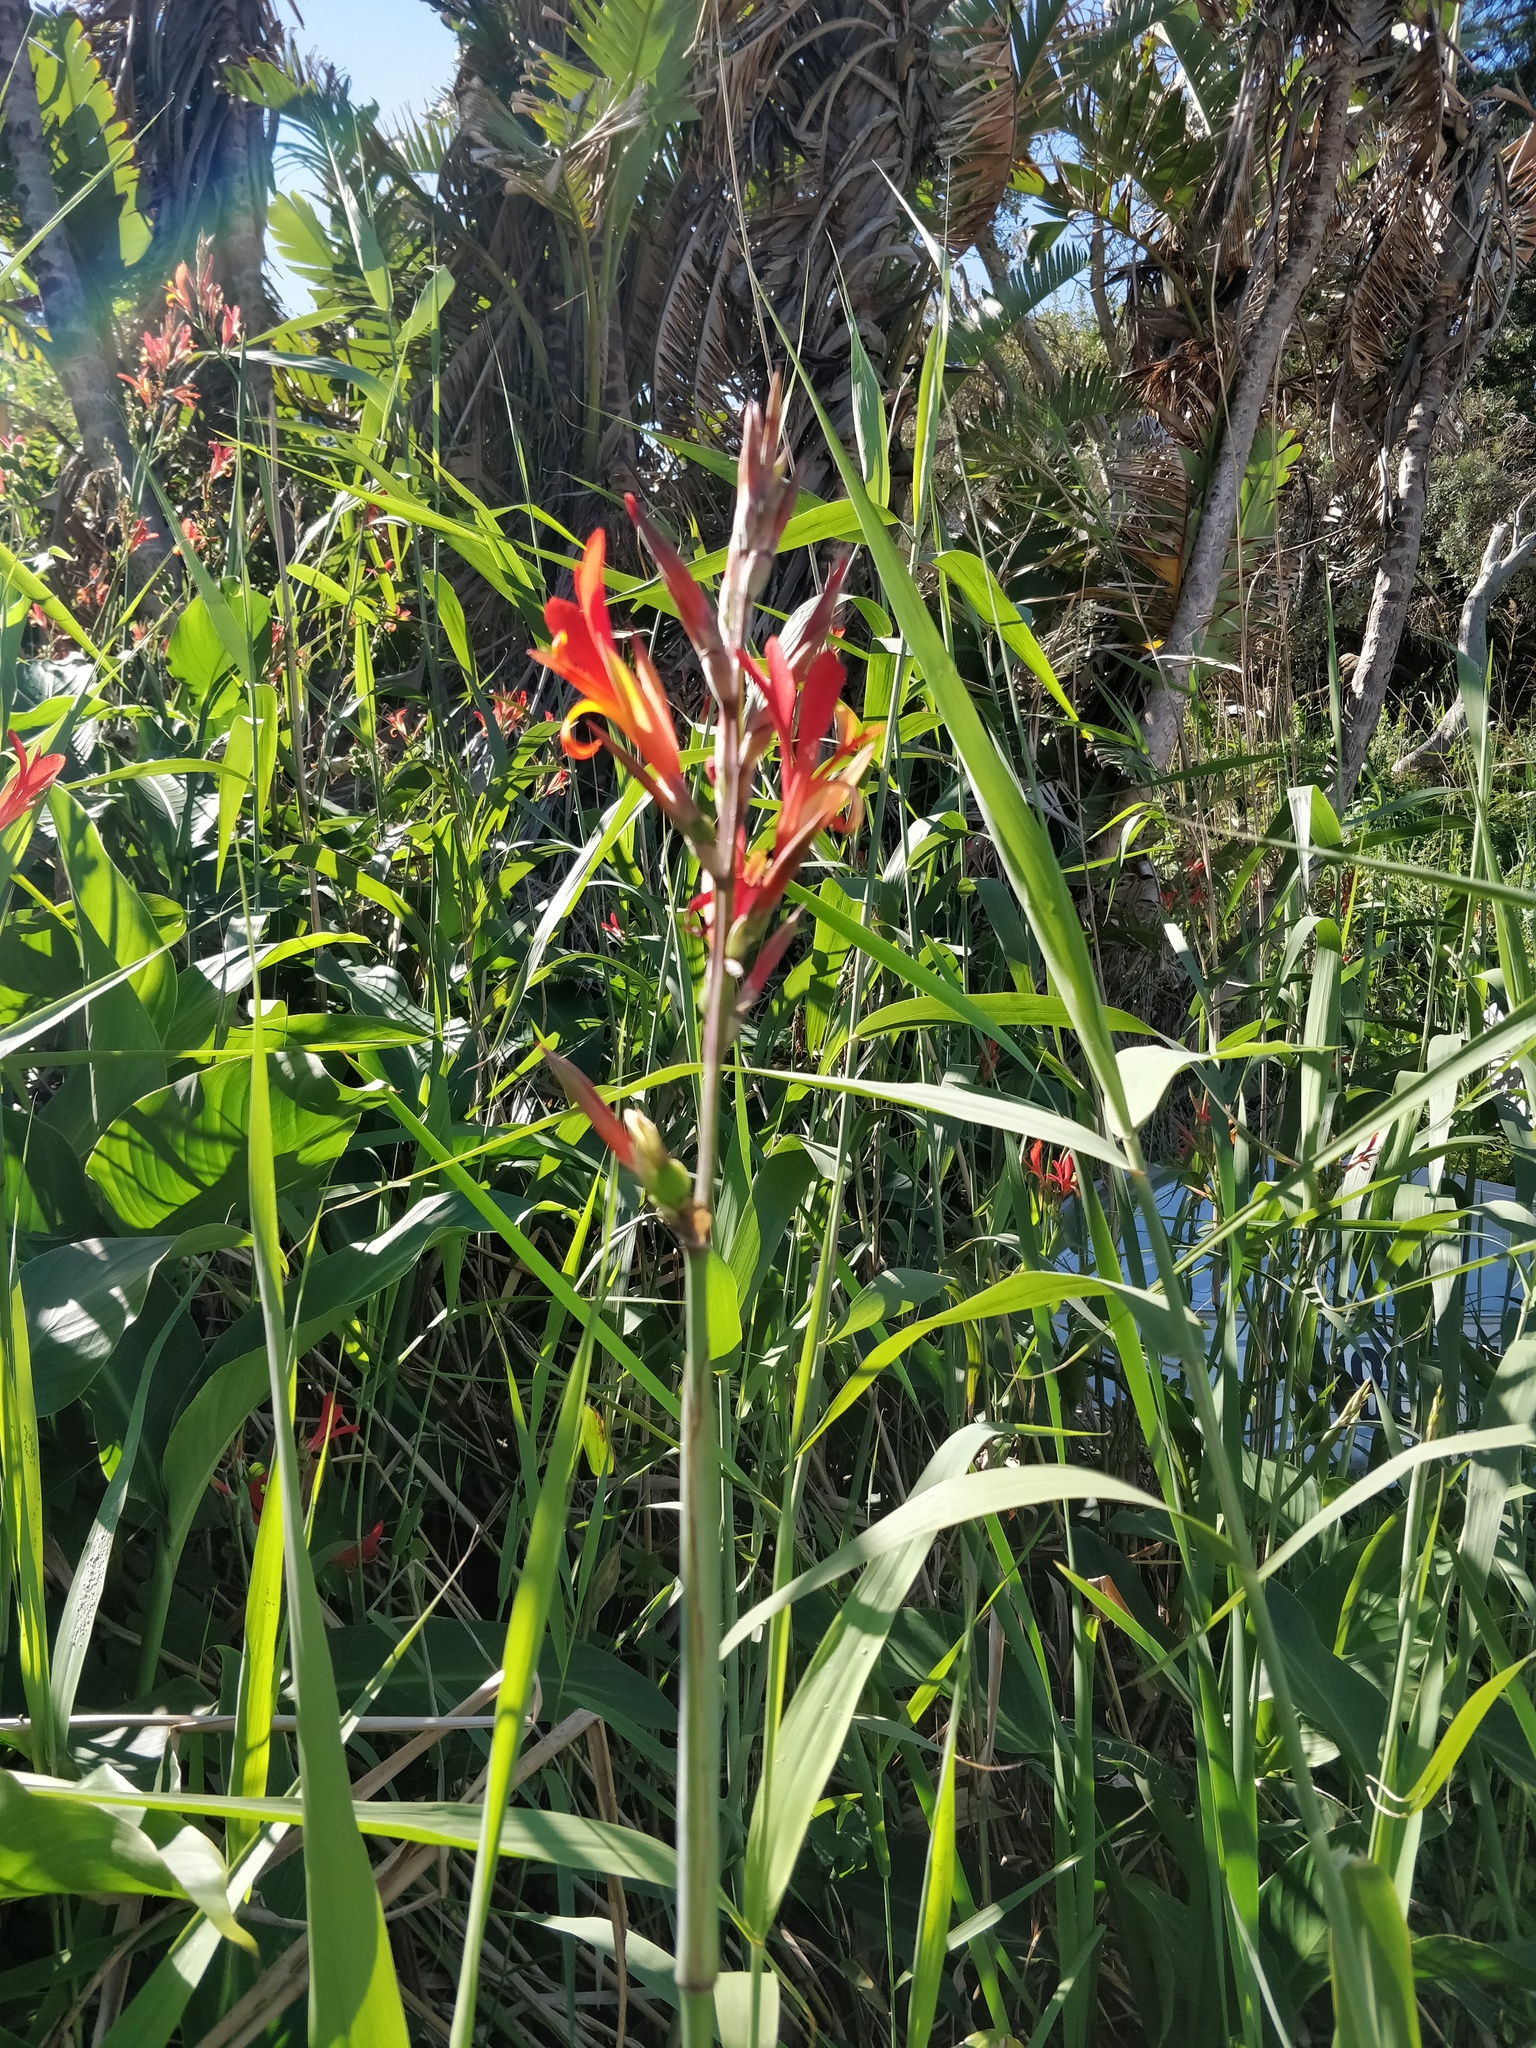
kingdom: Plantae
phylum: Tracheophyta
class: Liliopsida
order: Zingiberales
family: Cannaceae
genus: Canna
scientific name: Canna indica
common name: Indian shot
